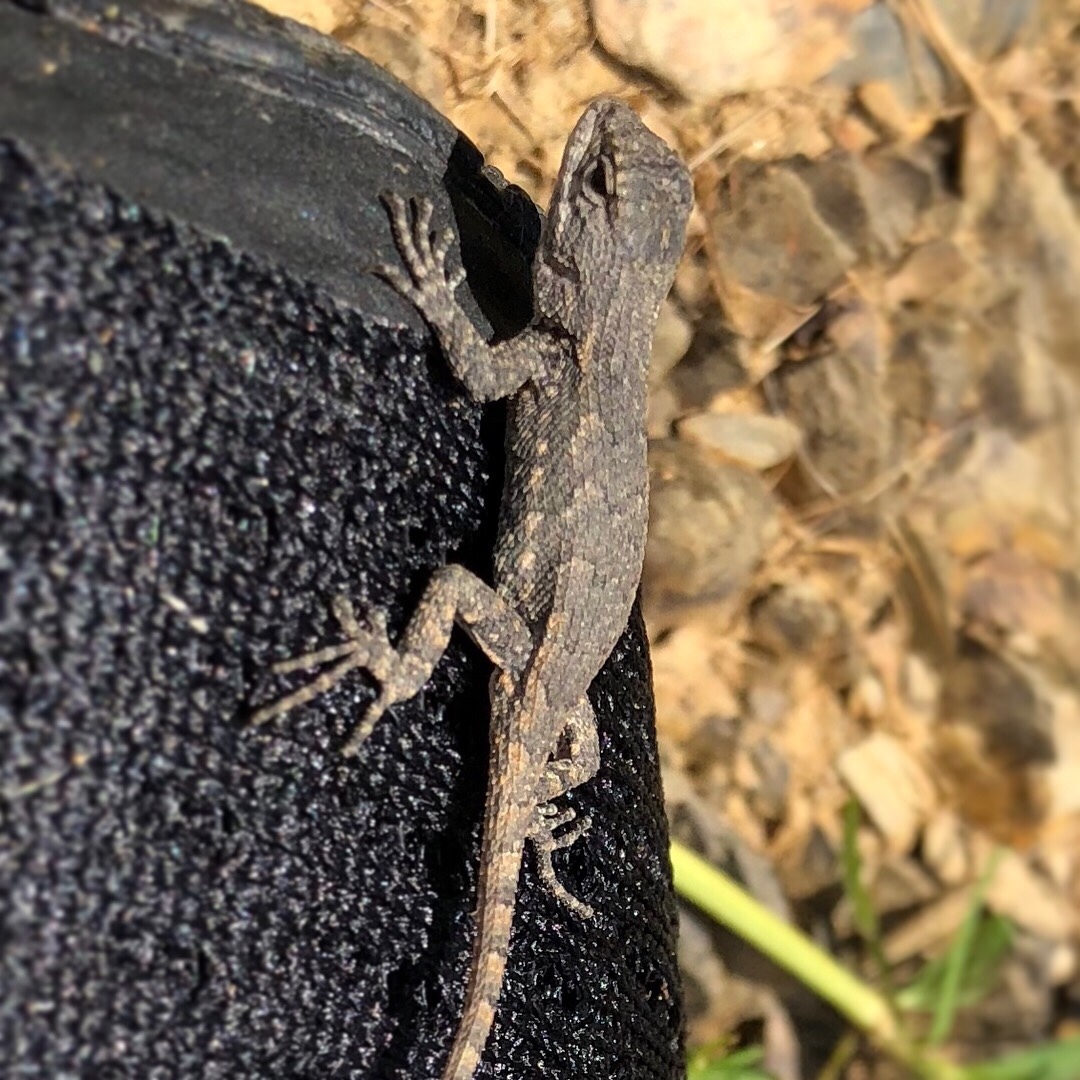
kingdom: Animalia
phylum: Chordata
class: Squamata
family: Phrynosomatidae
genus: Sceloporus
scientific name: Sceloporus consobrinus
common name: Southern prairie lizard
